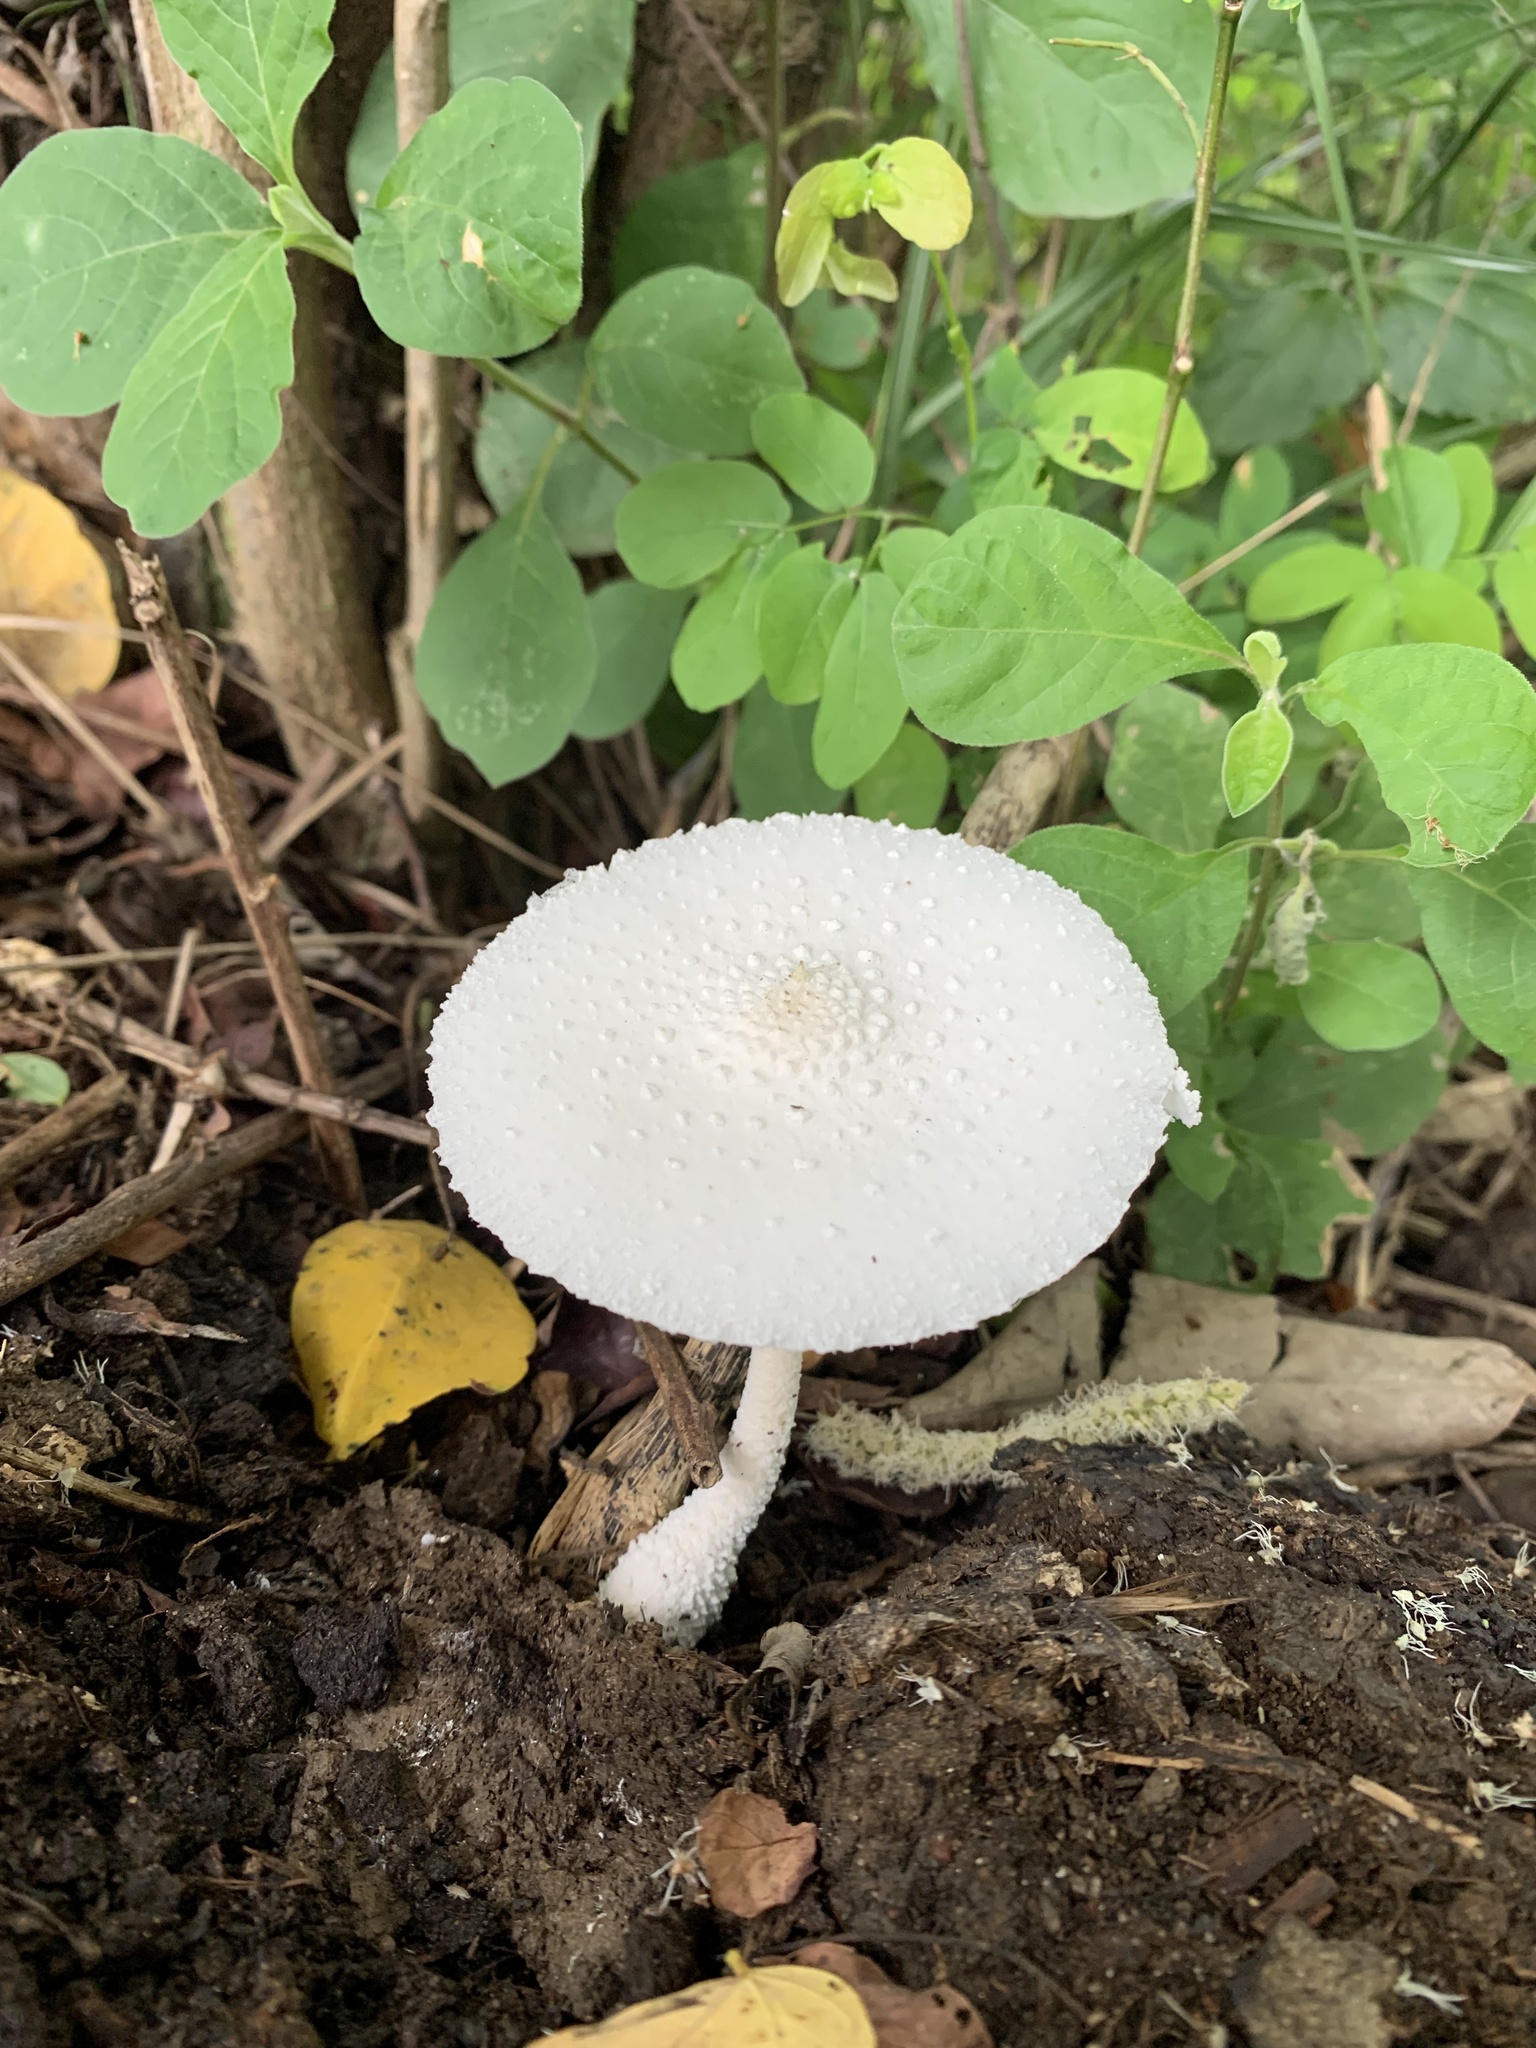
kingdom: Fungi
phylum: Basidiomycota
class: Agaricomycetes
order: Agaricales
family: Agaricaceae
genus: Leucocoprinus
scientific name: Leucocoprinus cretaceus
